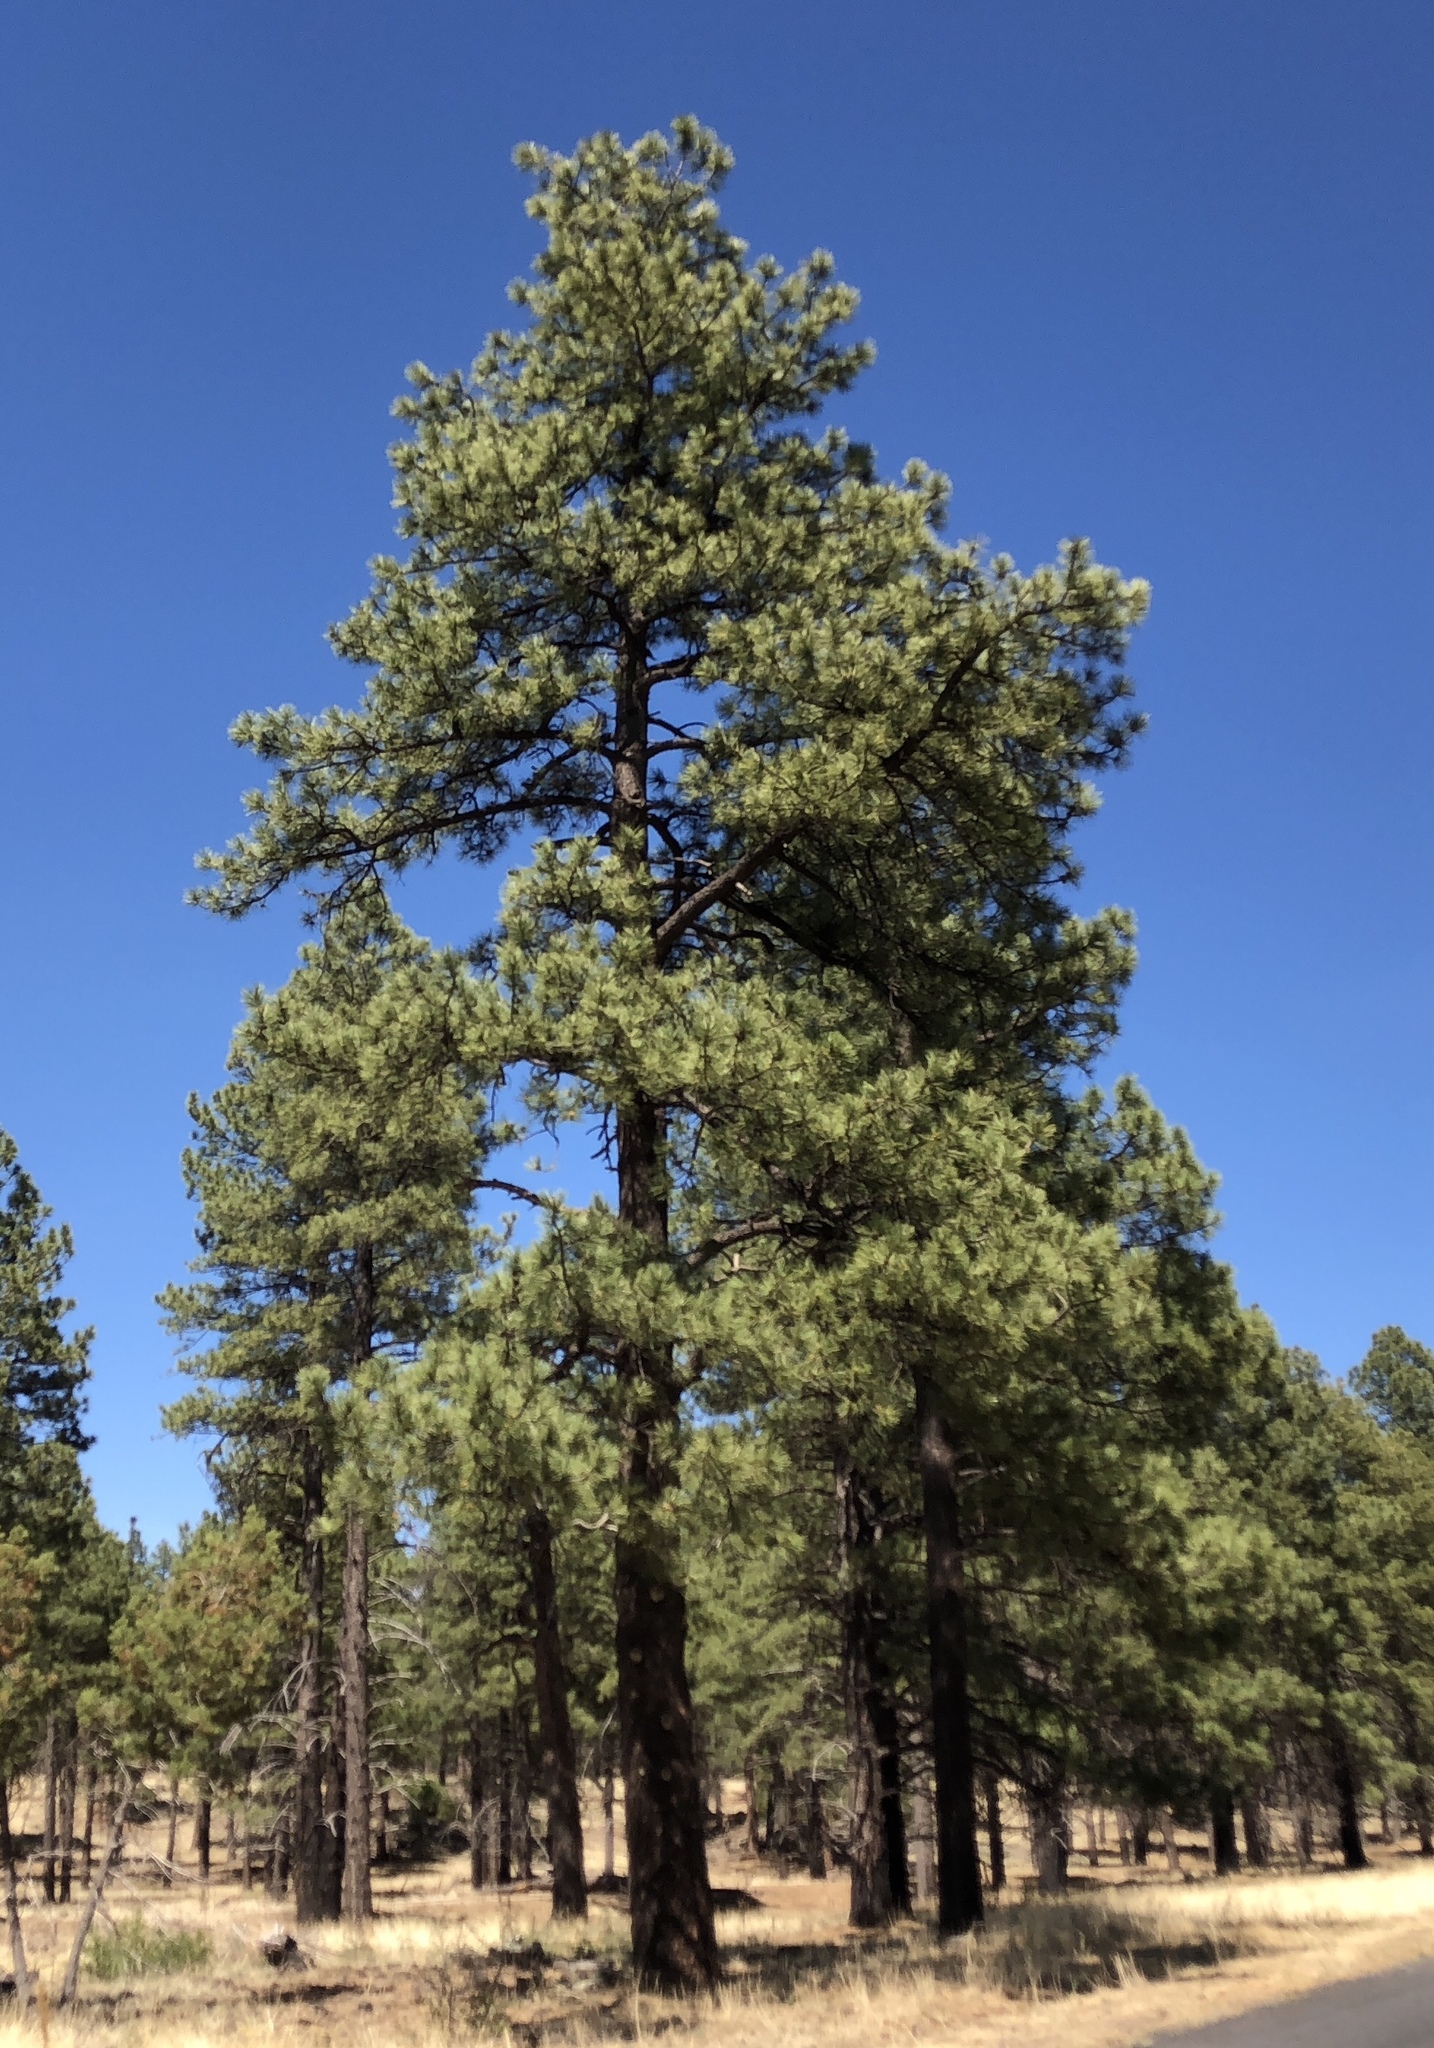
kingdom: Plantae
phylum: Tracheophyta
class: Pinopsida
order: Pinales
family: Pinaceae
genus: Pinus
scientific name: Pinus ponderosa
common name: Western yellow-pine
